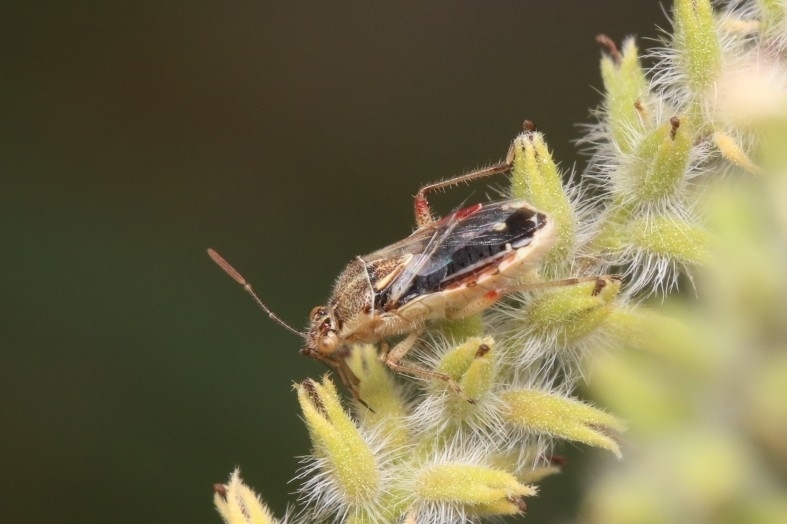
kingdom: Animalia
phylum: Arthropoda
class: Insecta
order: Hemiptera
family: Rhopalidae
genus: Liorhyssus
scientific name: Liorhyssus hyalinus
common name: Scentless plant bug
